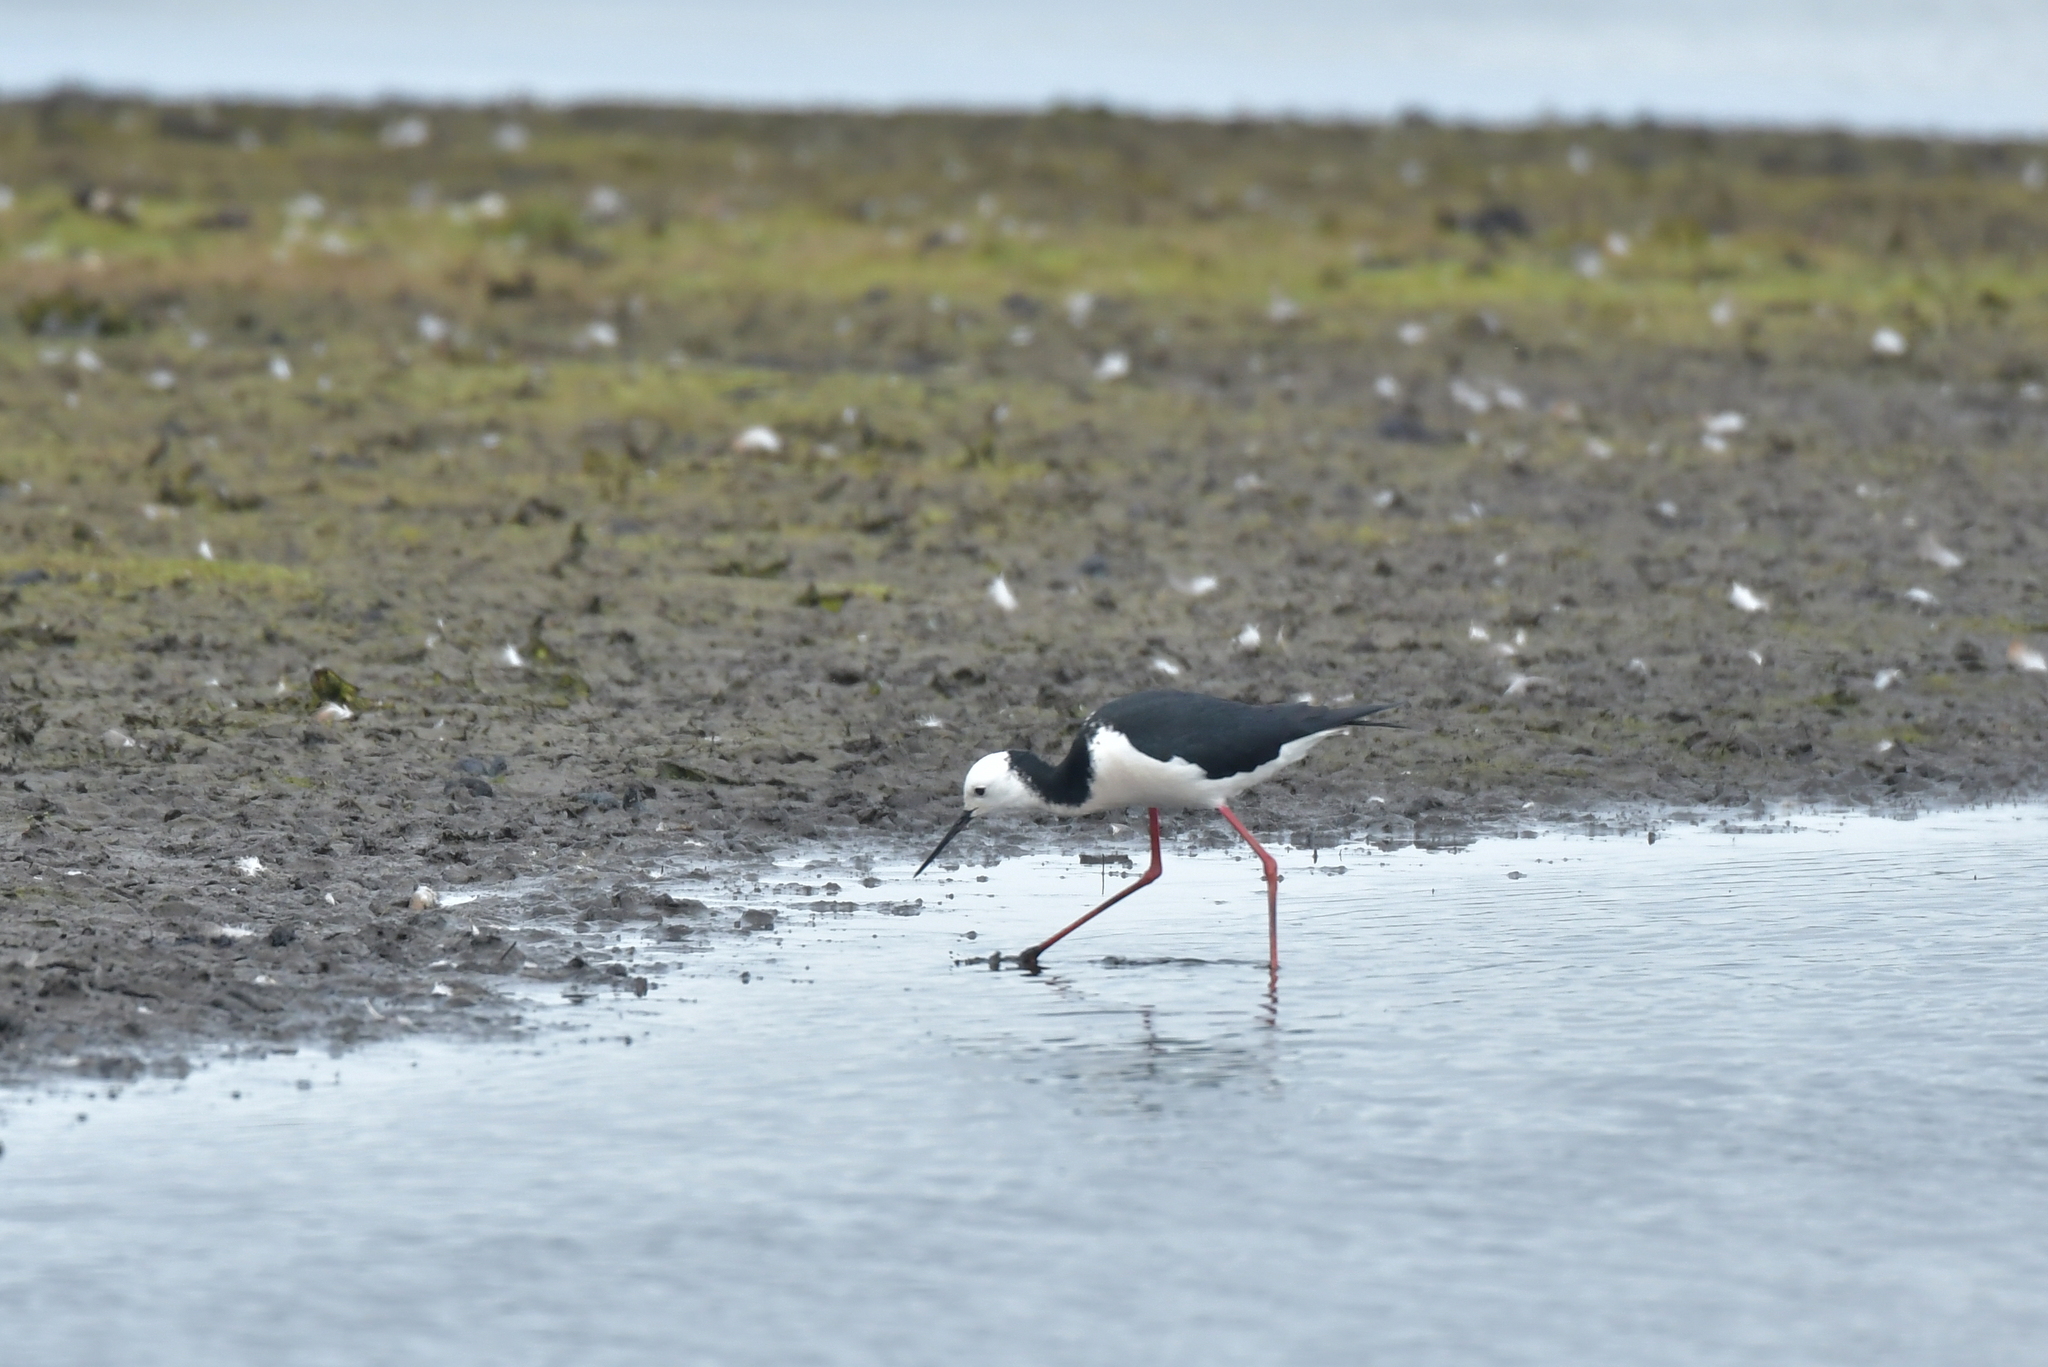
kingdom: Animalia
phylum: Chordata
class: Aves
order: Charadriiformes
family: Recurvirostridae
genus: Himantopus
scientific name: Himantopus leucocephalus
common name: White-headed stilt
